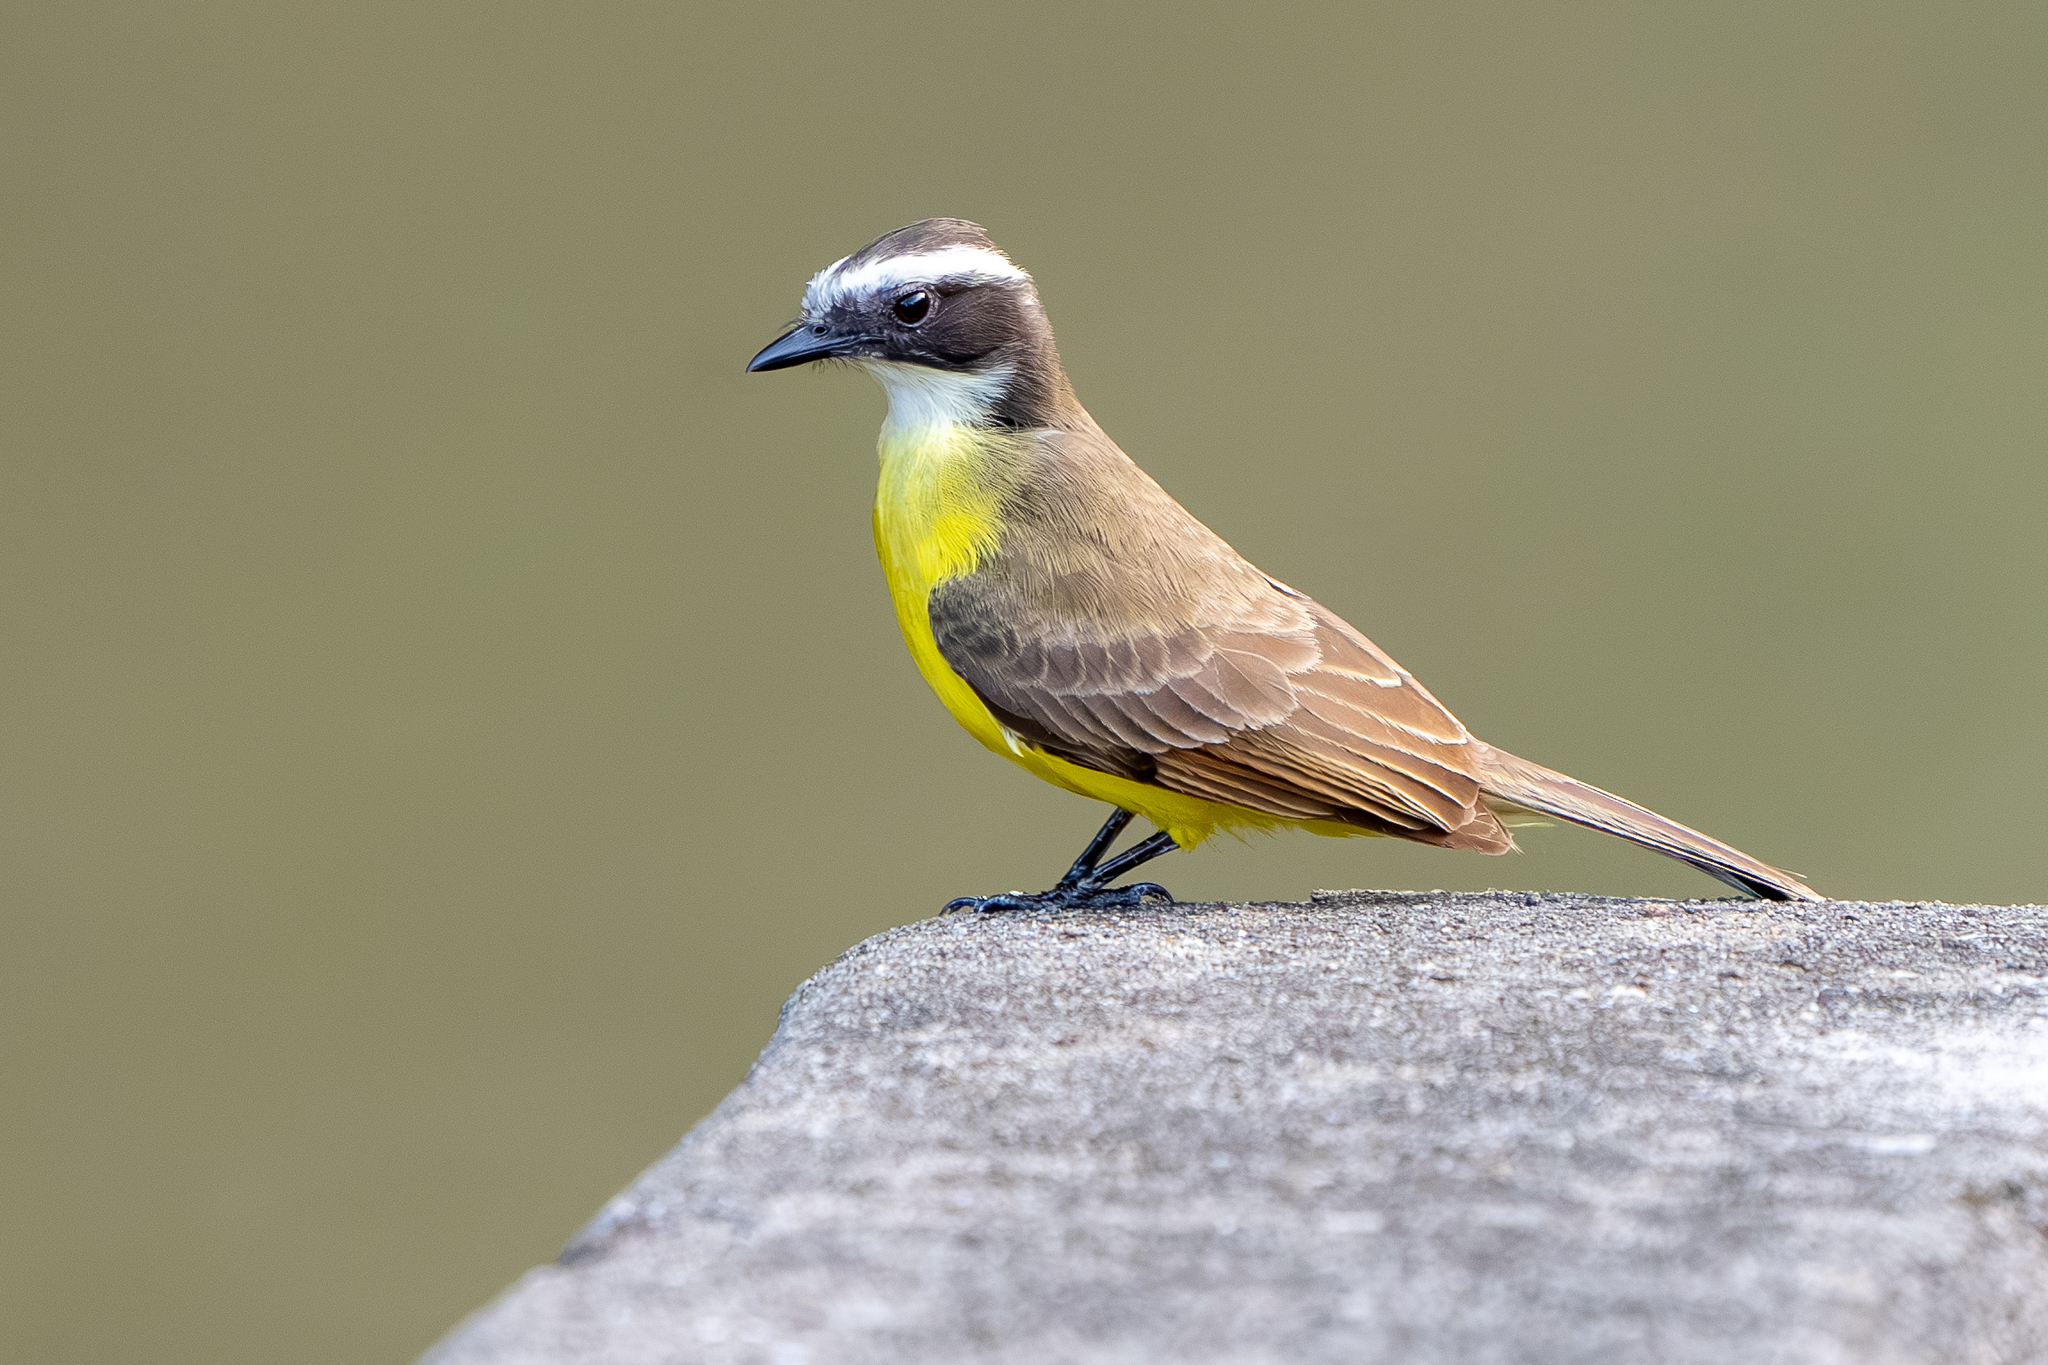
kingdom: Animalia
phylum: Chordata
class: Aves
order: Passeriformes
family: Tyrannidae
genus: Myiozetetes
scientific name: Myiozetetes cayanensis
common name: Rusty-margined flycatcher
